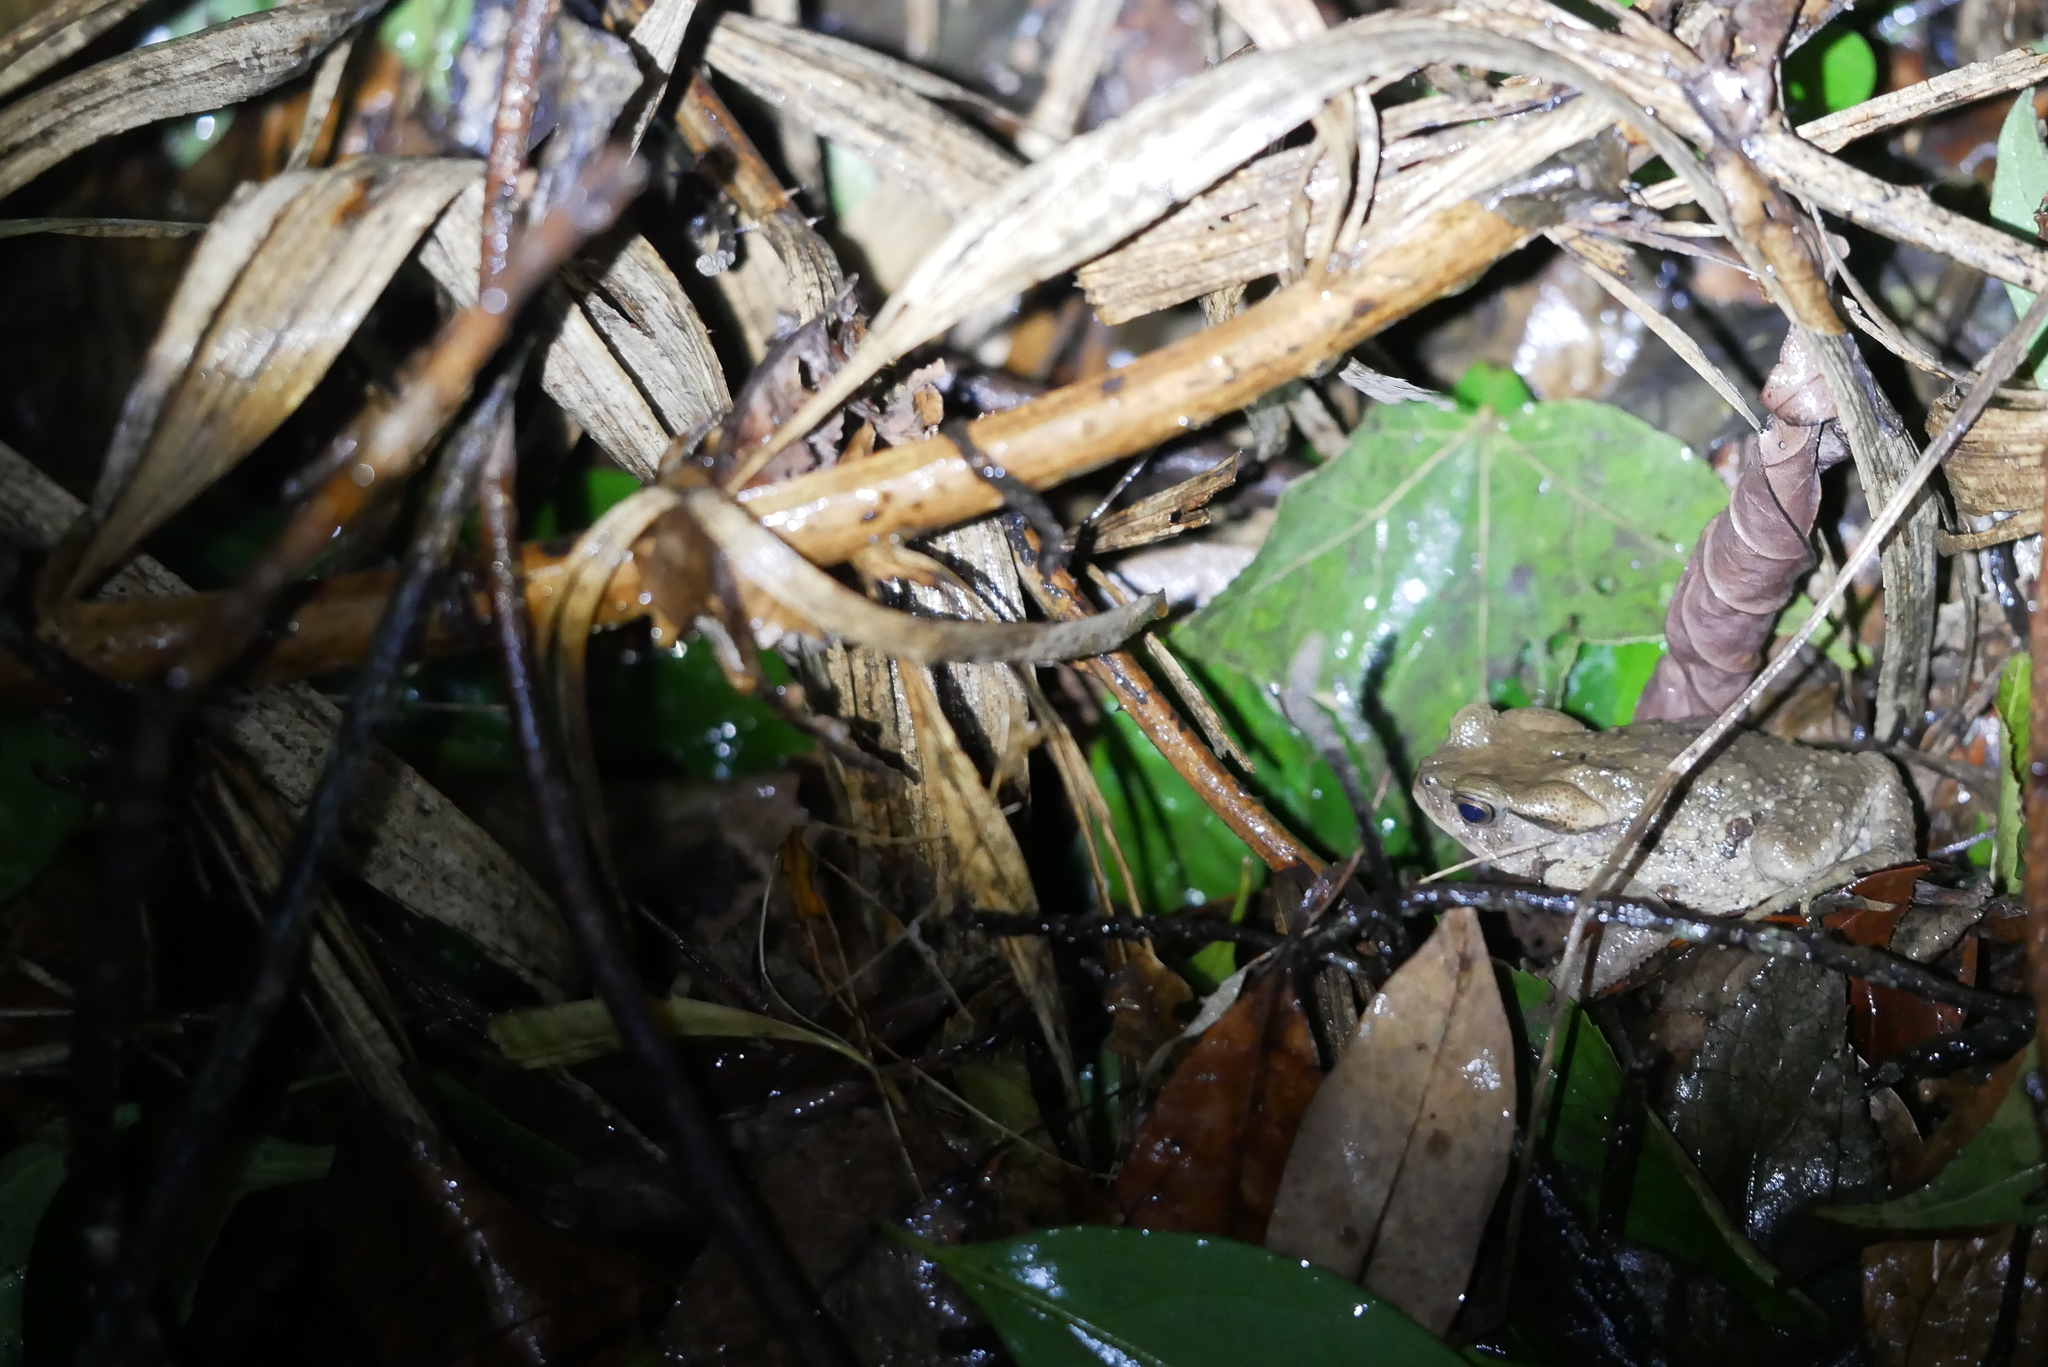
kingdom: Animalia
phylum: Chordata
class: Amphibia
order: Anura
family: Bufonidae
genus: Bufo
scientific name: Bufo bankorensis
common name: Bankor toad
